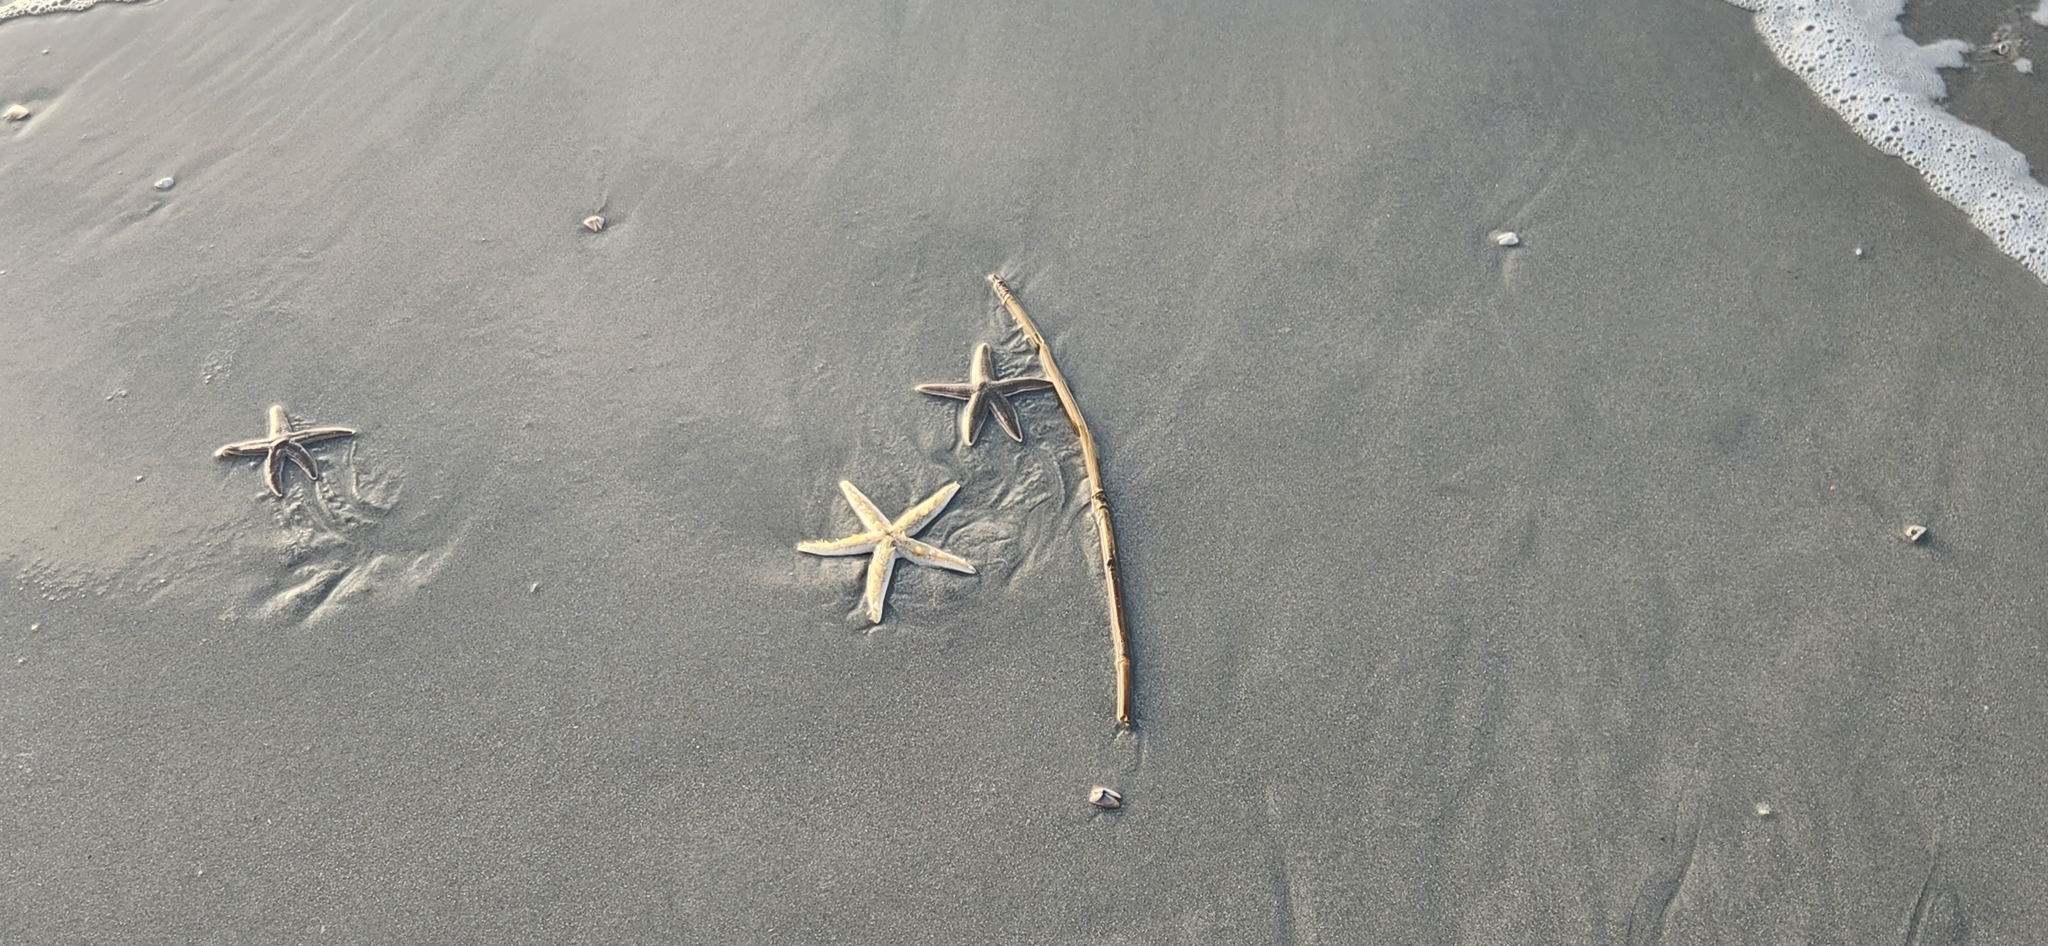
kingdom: Animalia
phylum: Echinodermata
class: Asteroidea
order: Paxillosida
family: Luidiidae
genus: Luidia
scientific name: Luidia clathrata
